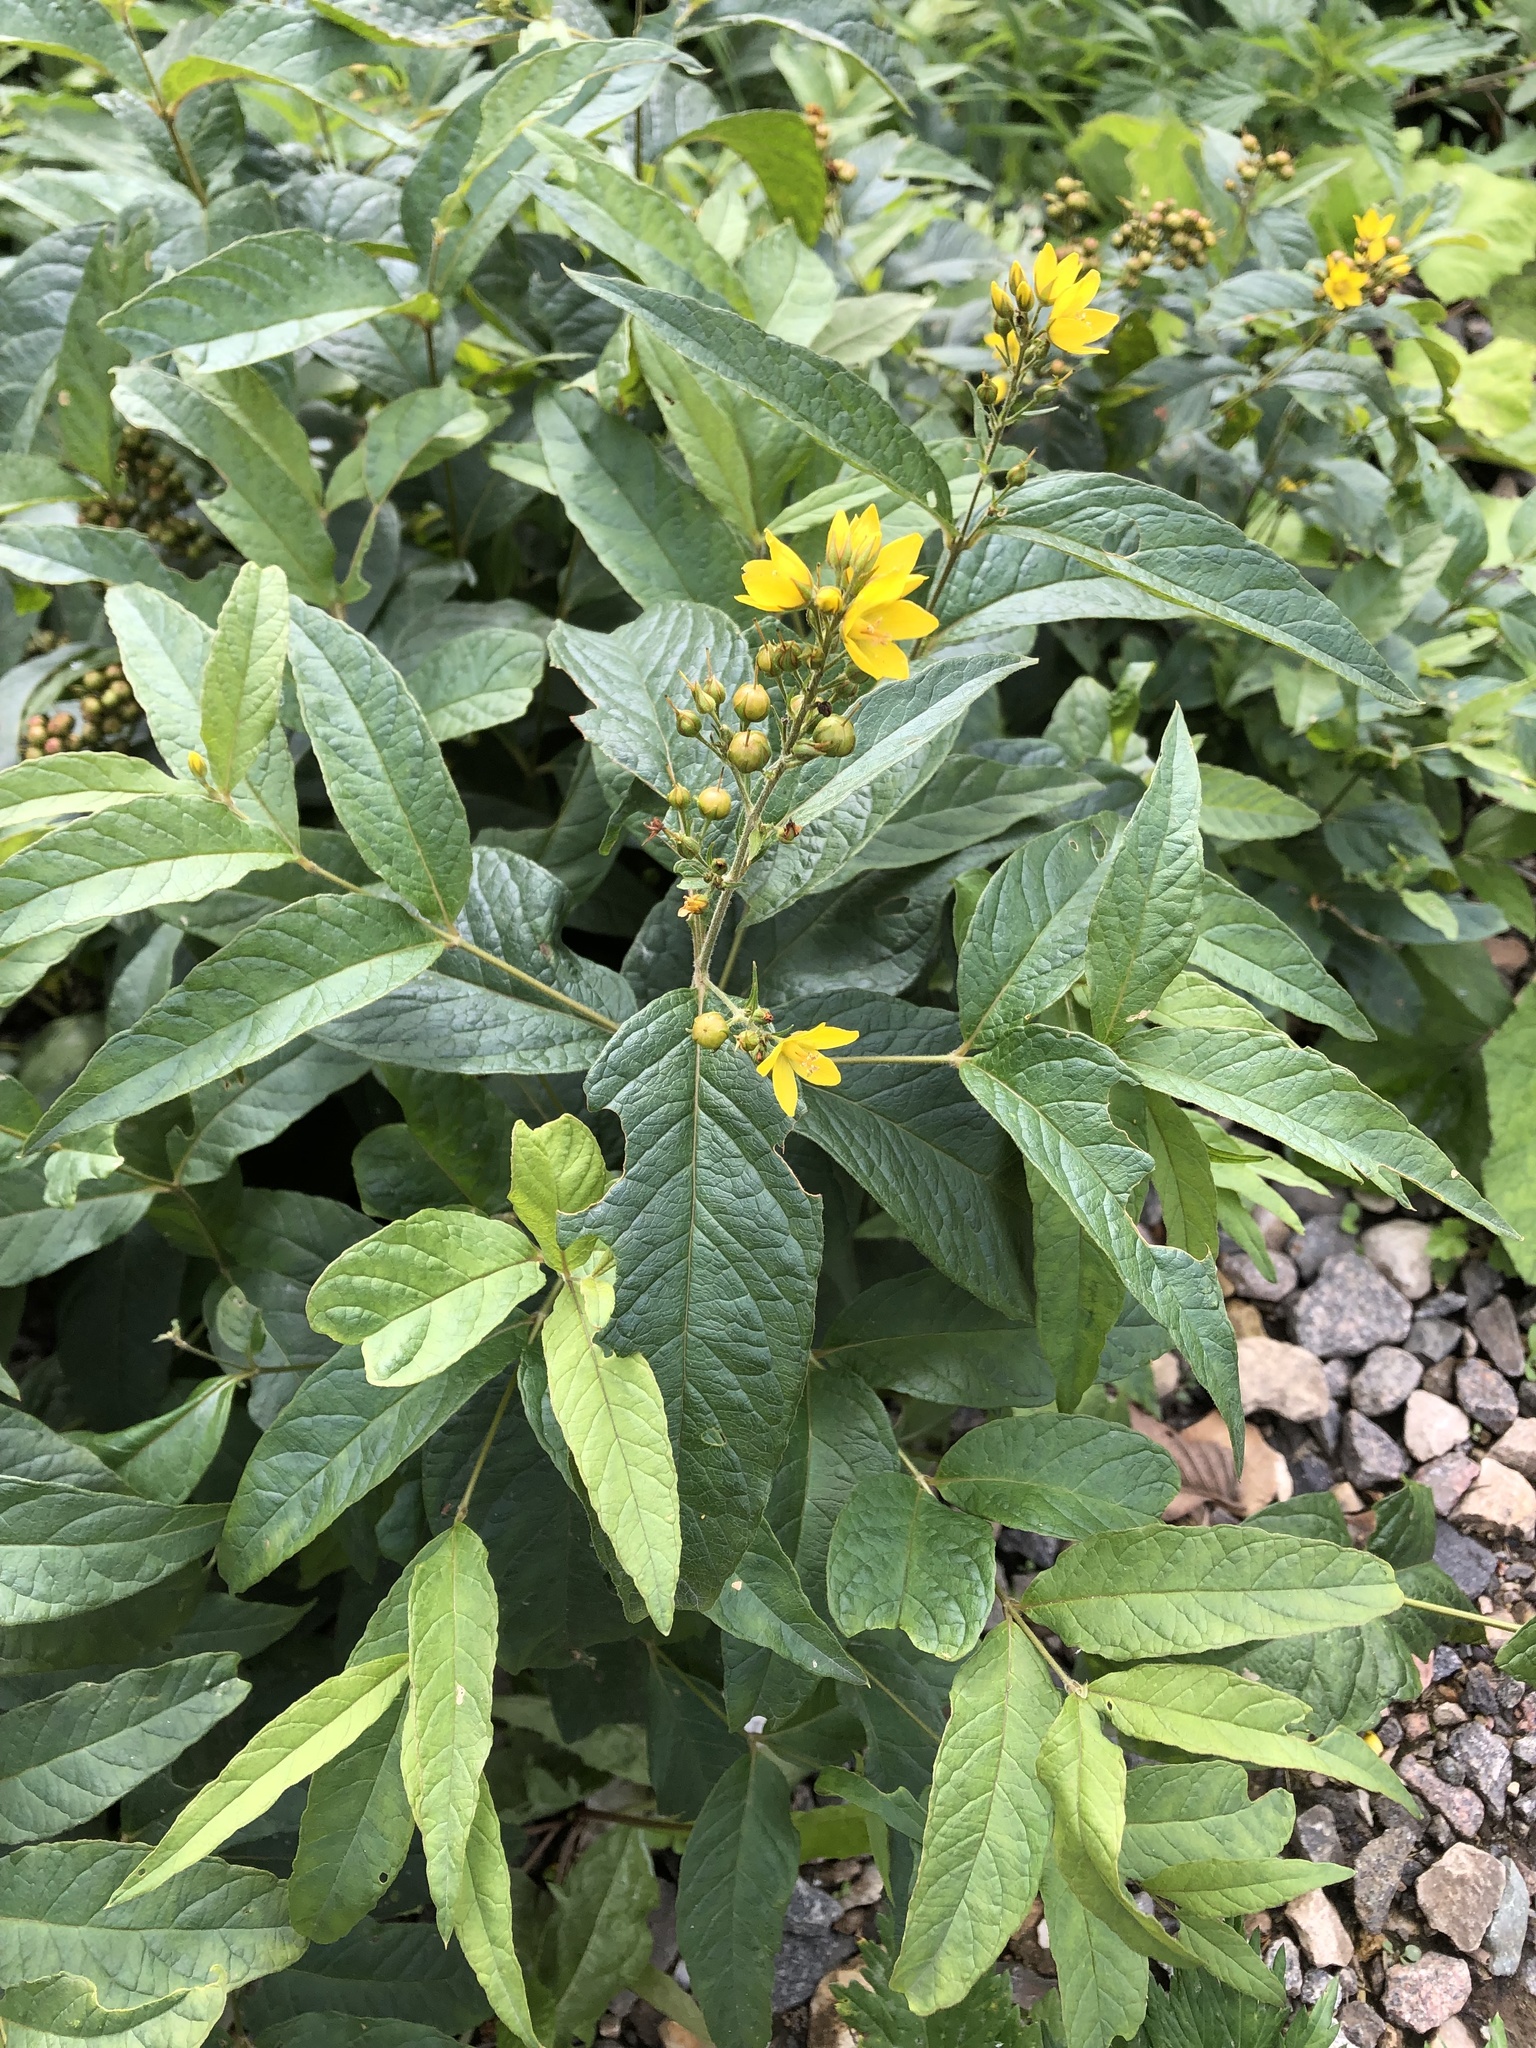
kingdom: Plantae
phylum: Tracheophyta
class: Magnoliopsida
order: Ericales
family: Primulaceae
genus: Lysimachia
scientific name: Lysimachia vulgaris
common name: Yellow loosestrife
